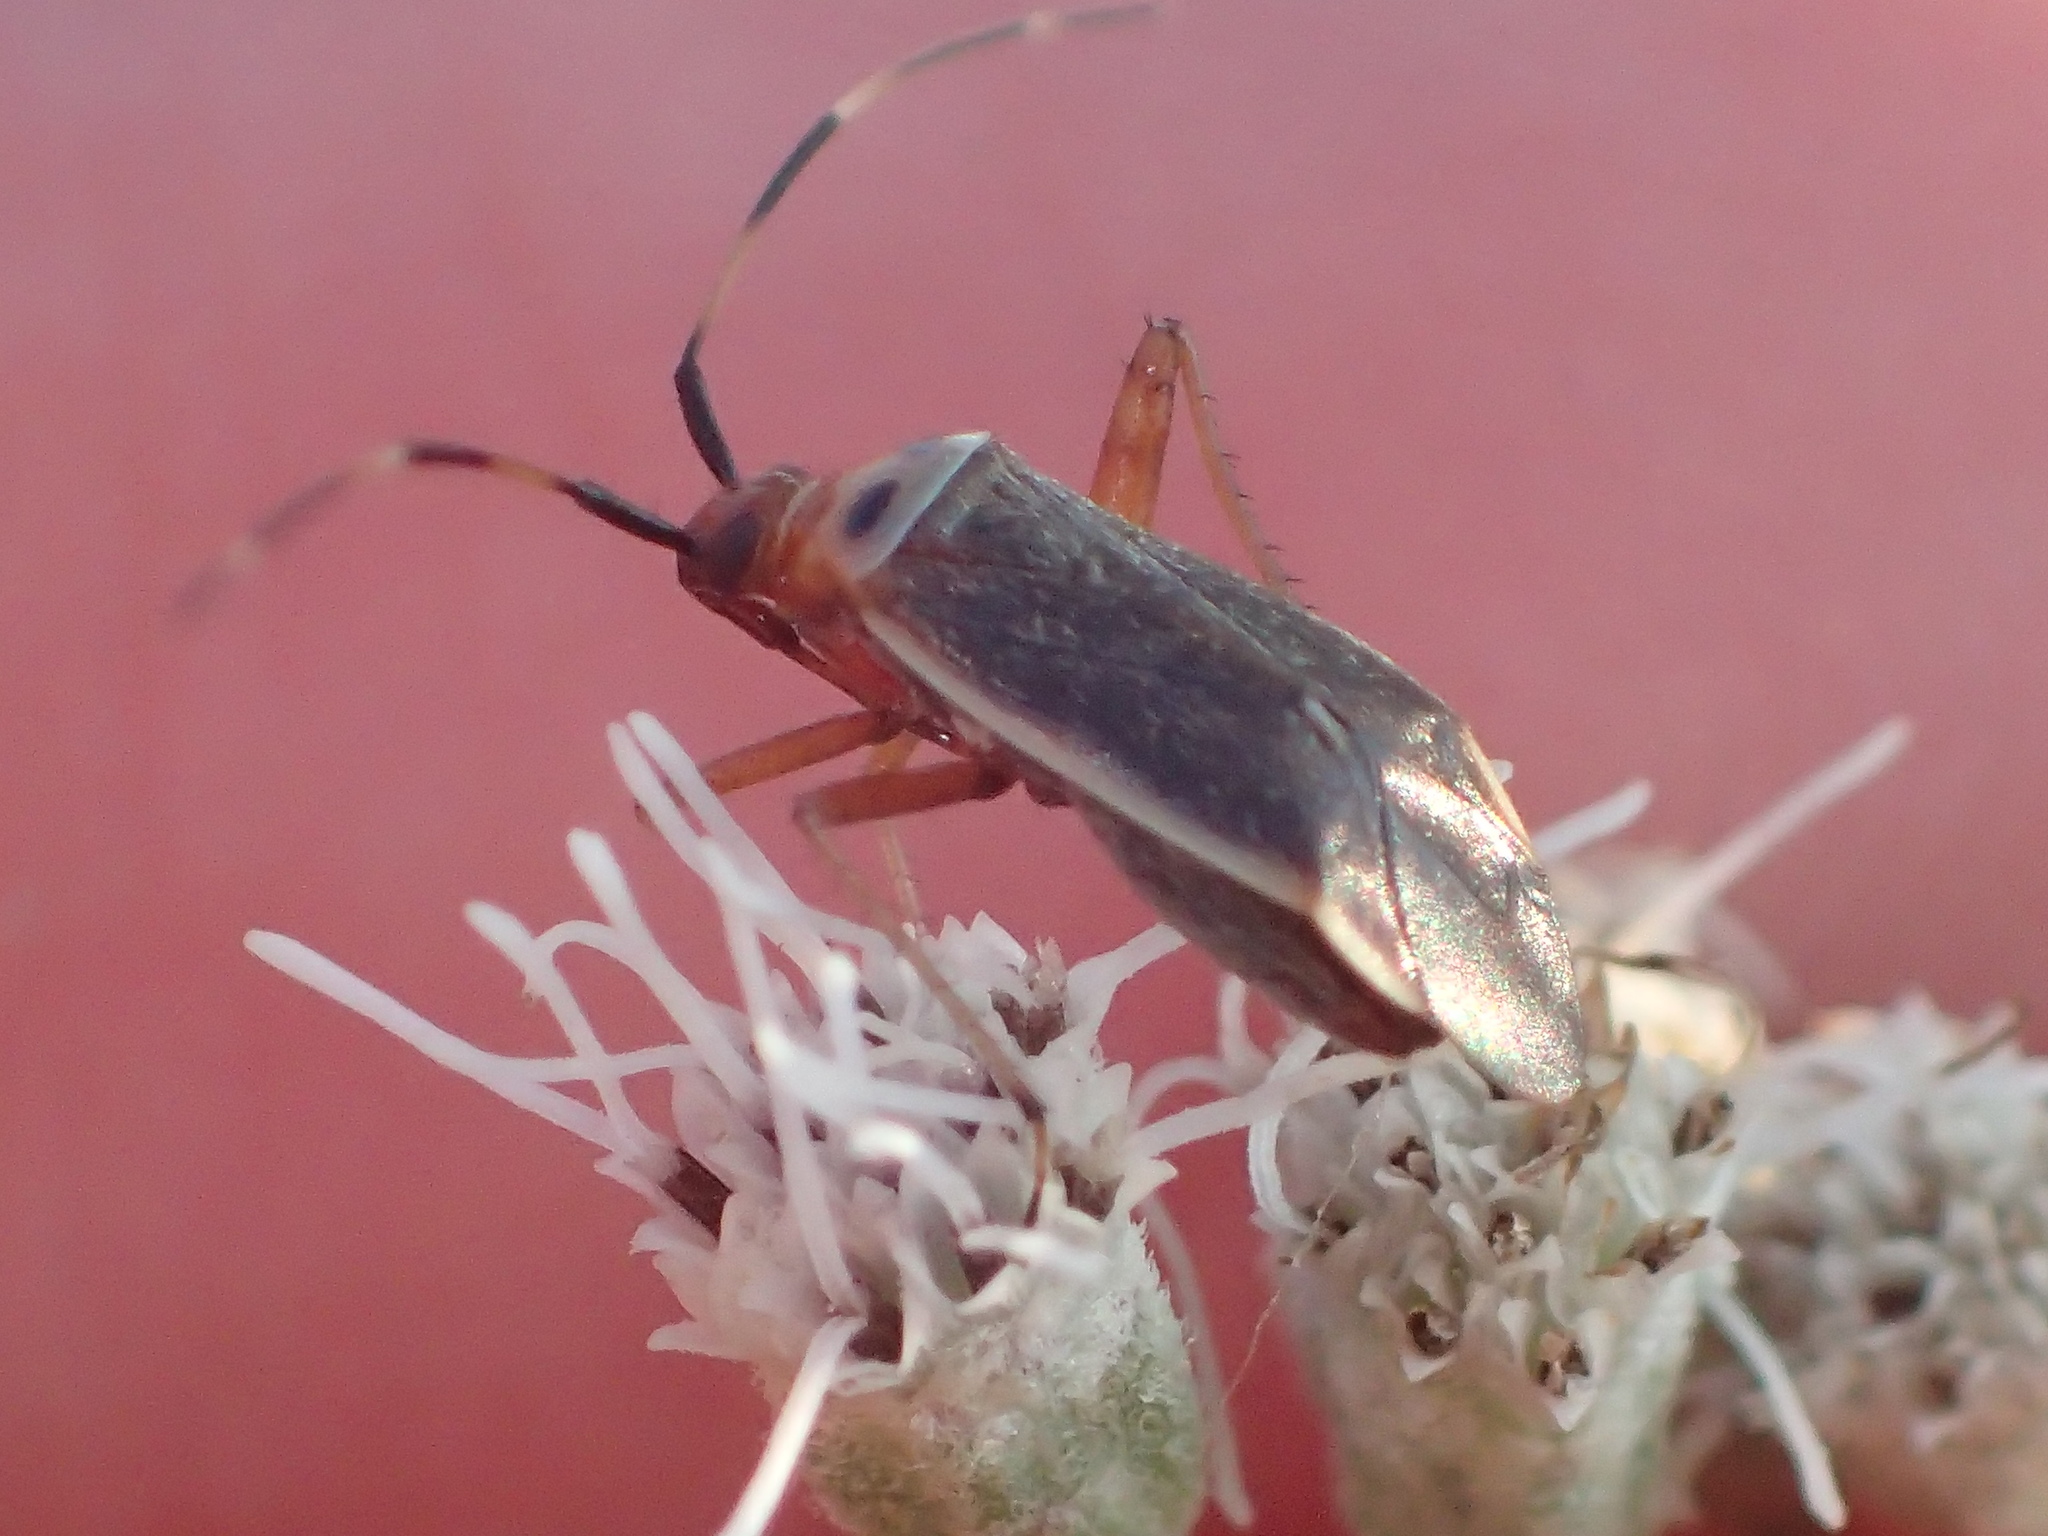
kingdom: Animalia
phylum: Arthropoda
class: Insecta
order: Hemiptera
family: Miridae
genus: Adelphocoris
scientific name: Adelphocoris rapidus
